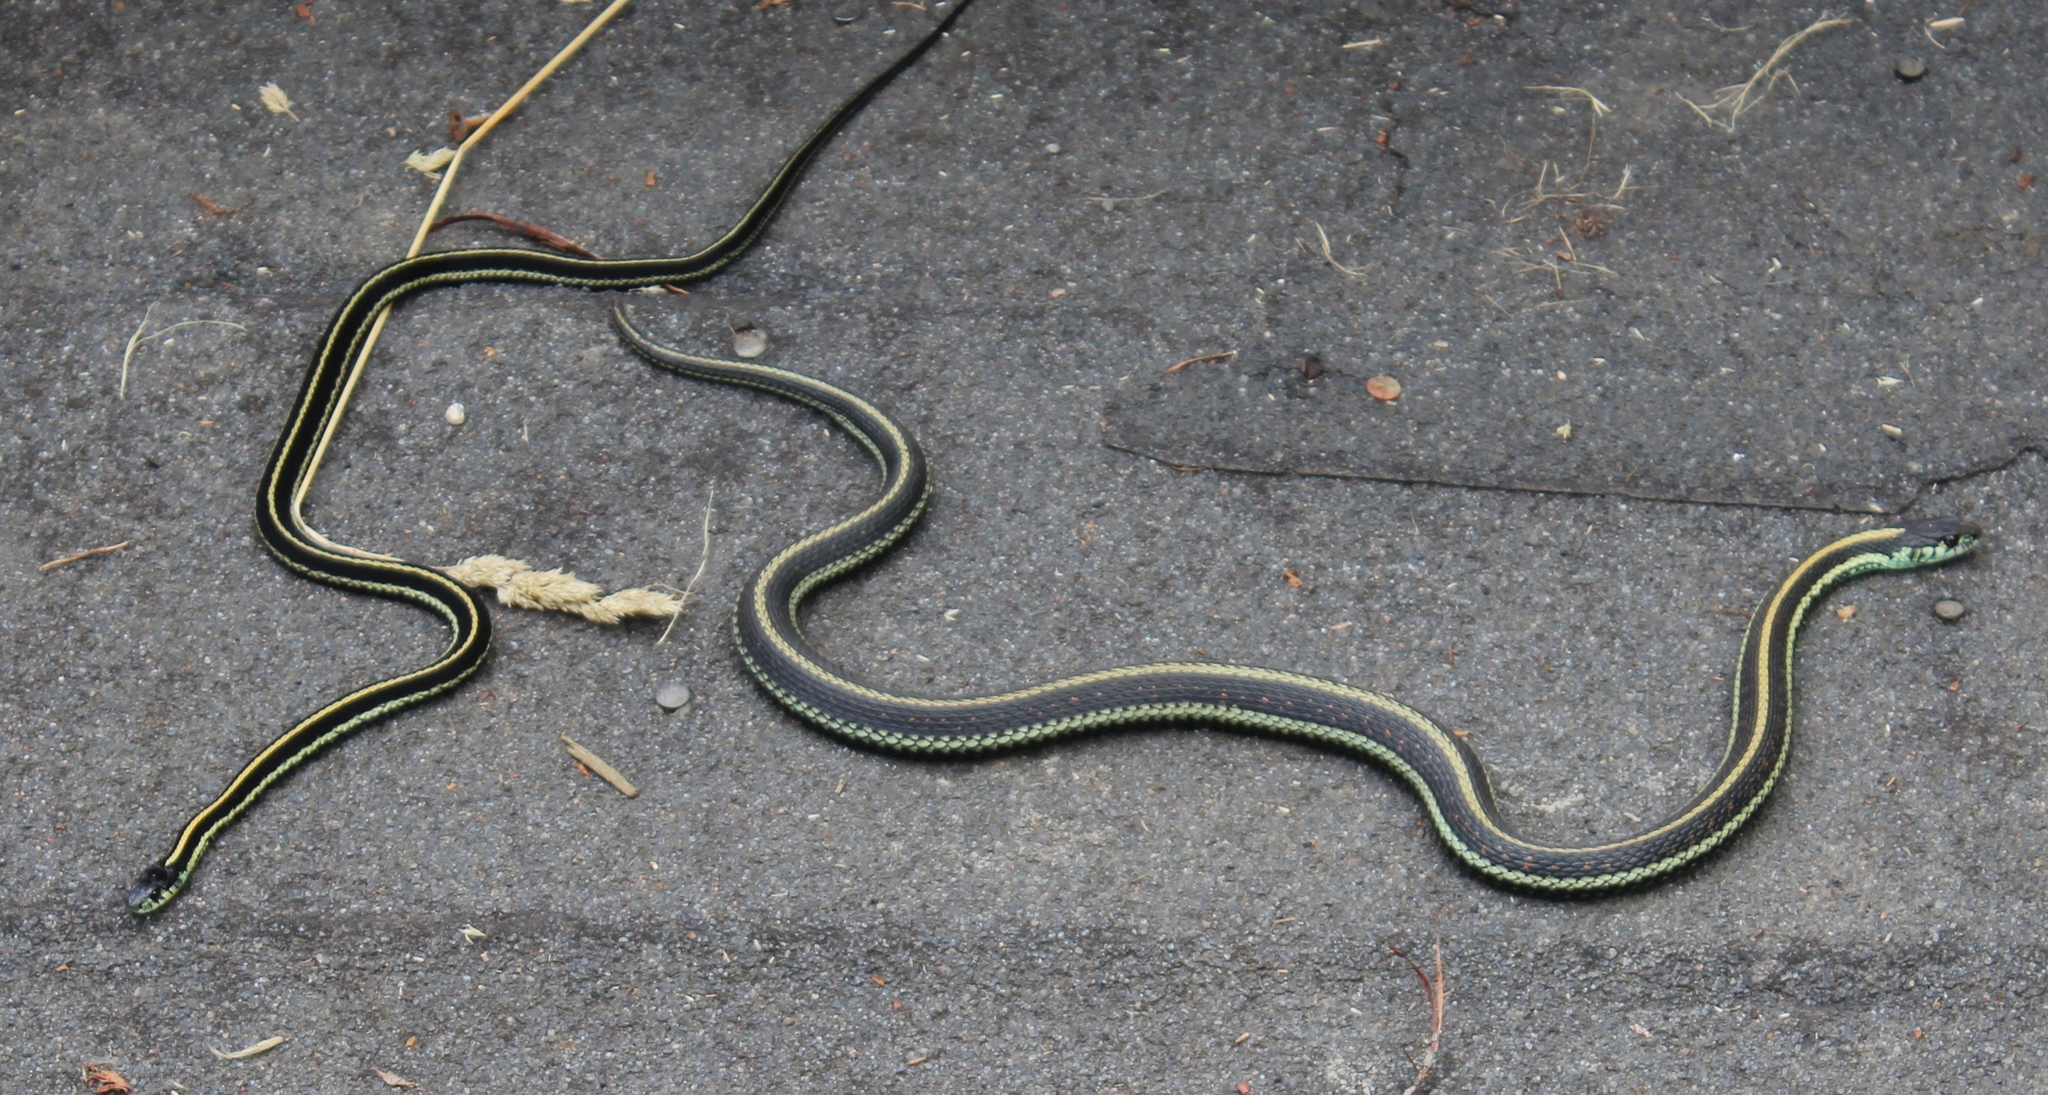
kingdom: Animalia
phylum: Chordata
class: Squamata
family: Colubridae
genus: Thamnophis
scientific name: Thamnophis sirtalis
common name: Common garter snake
